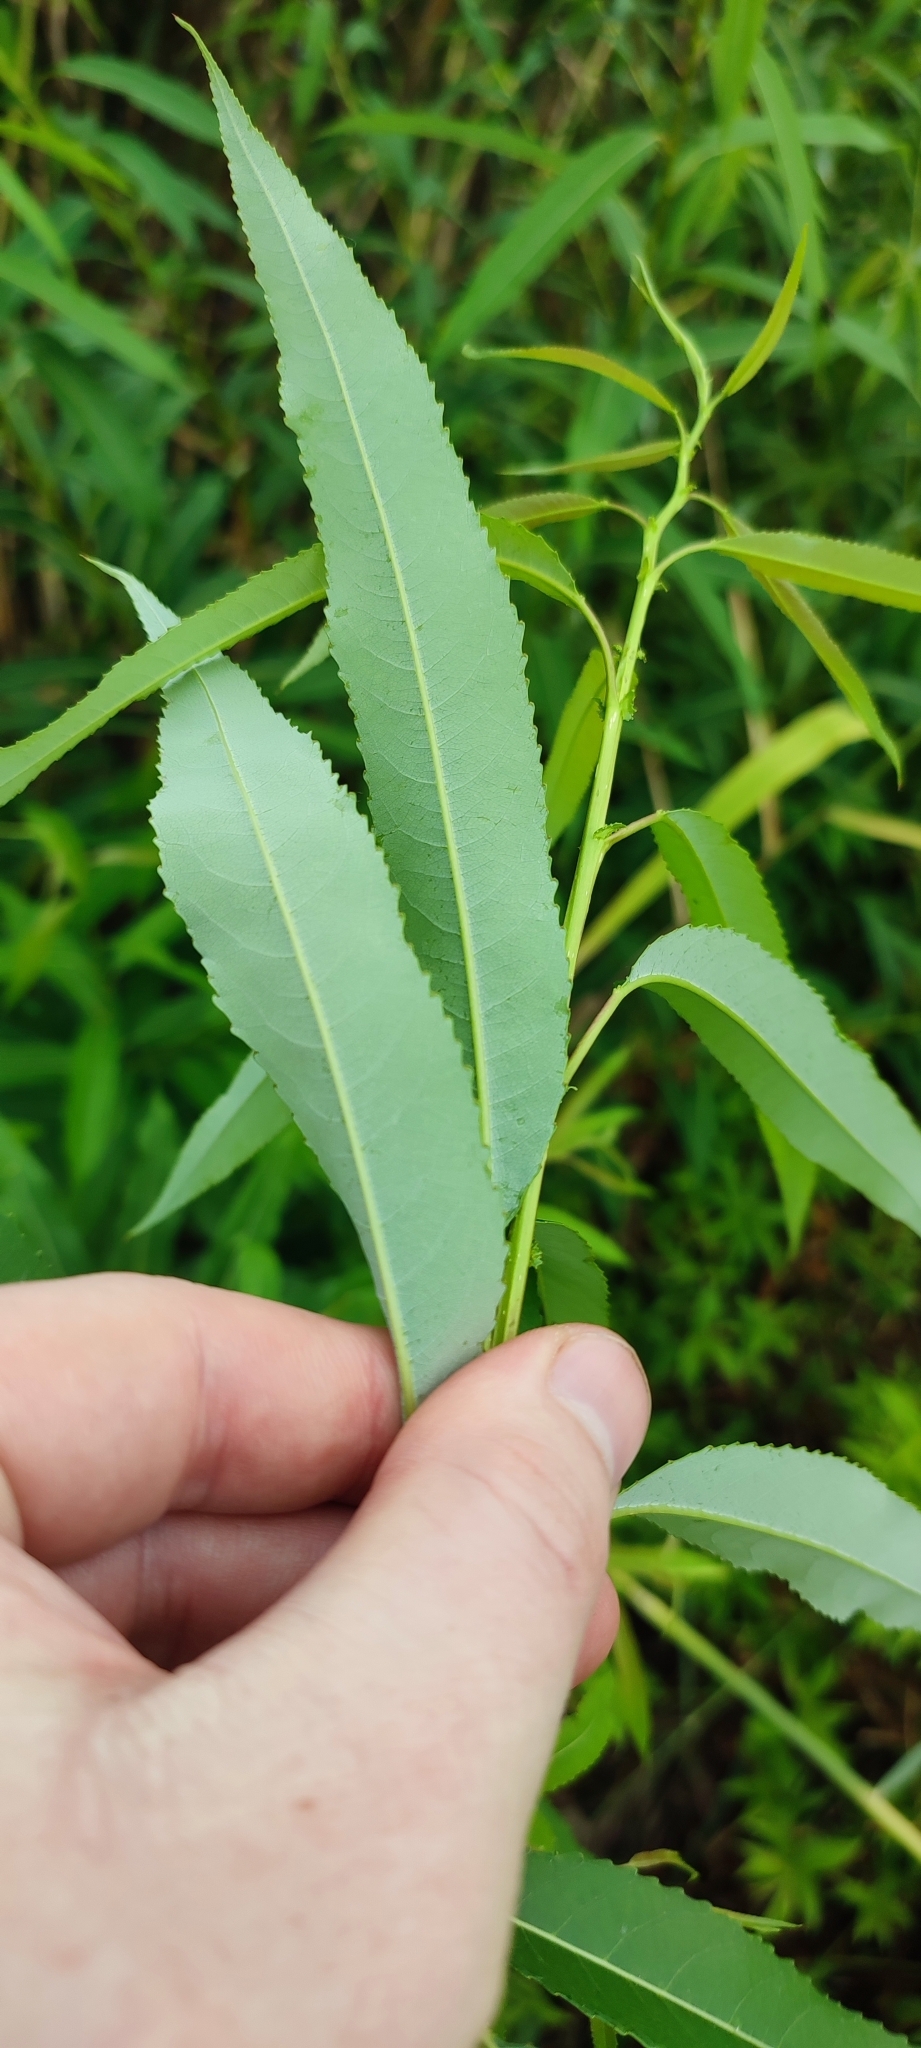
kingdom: Plantae
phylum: Tracheophyta
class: Magnoliopsida
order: Malpighiales
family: Salicaceae
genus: Salix
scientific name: Salix triandra
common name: Almond willow
